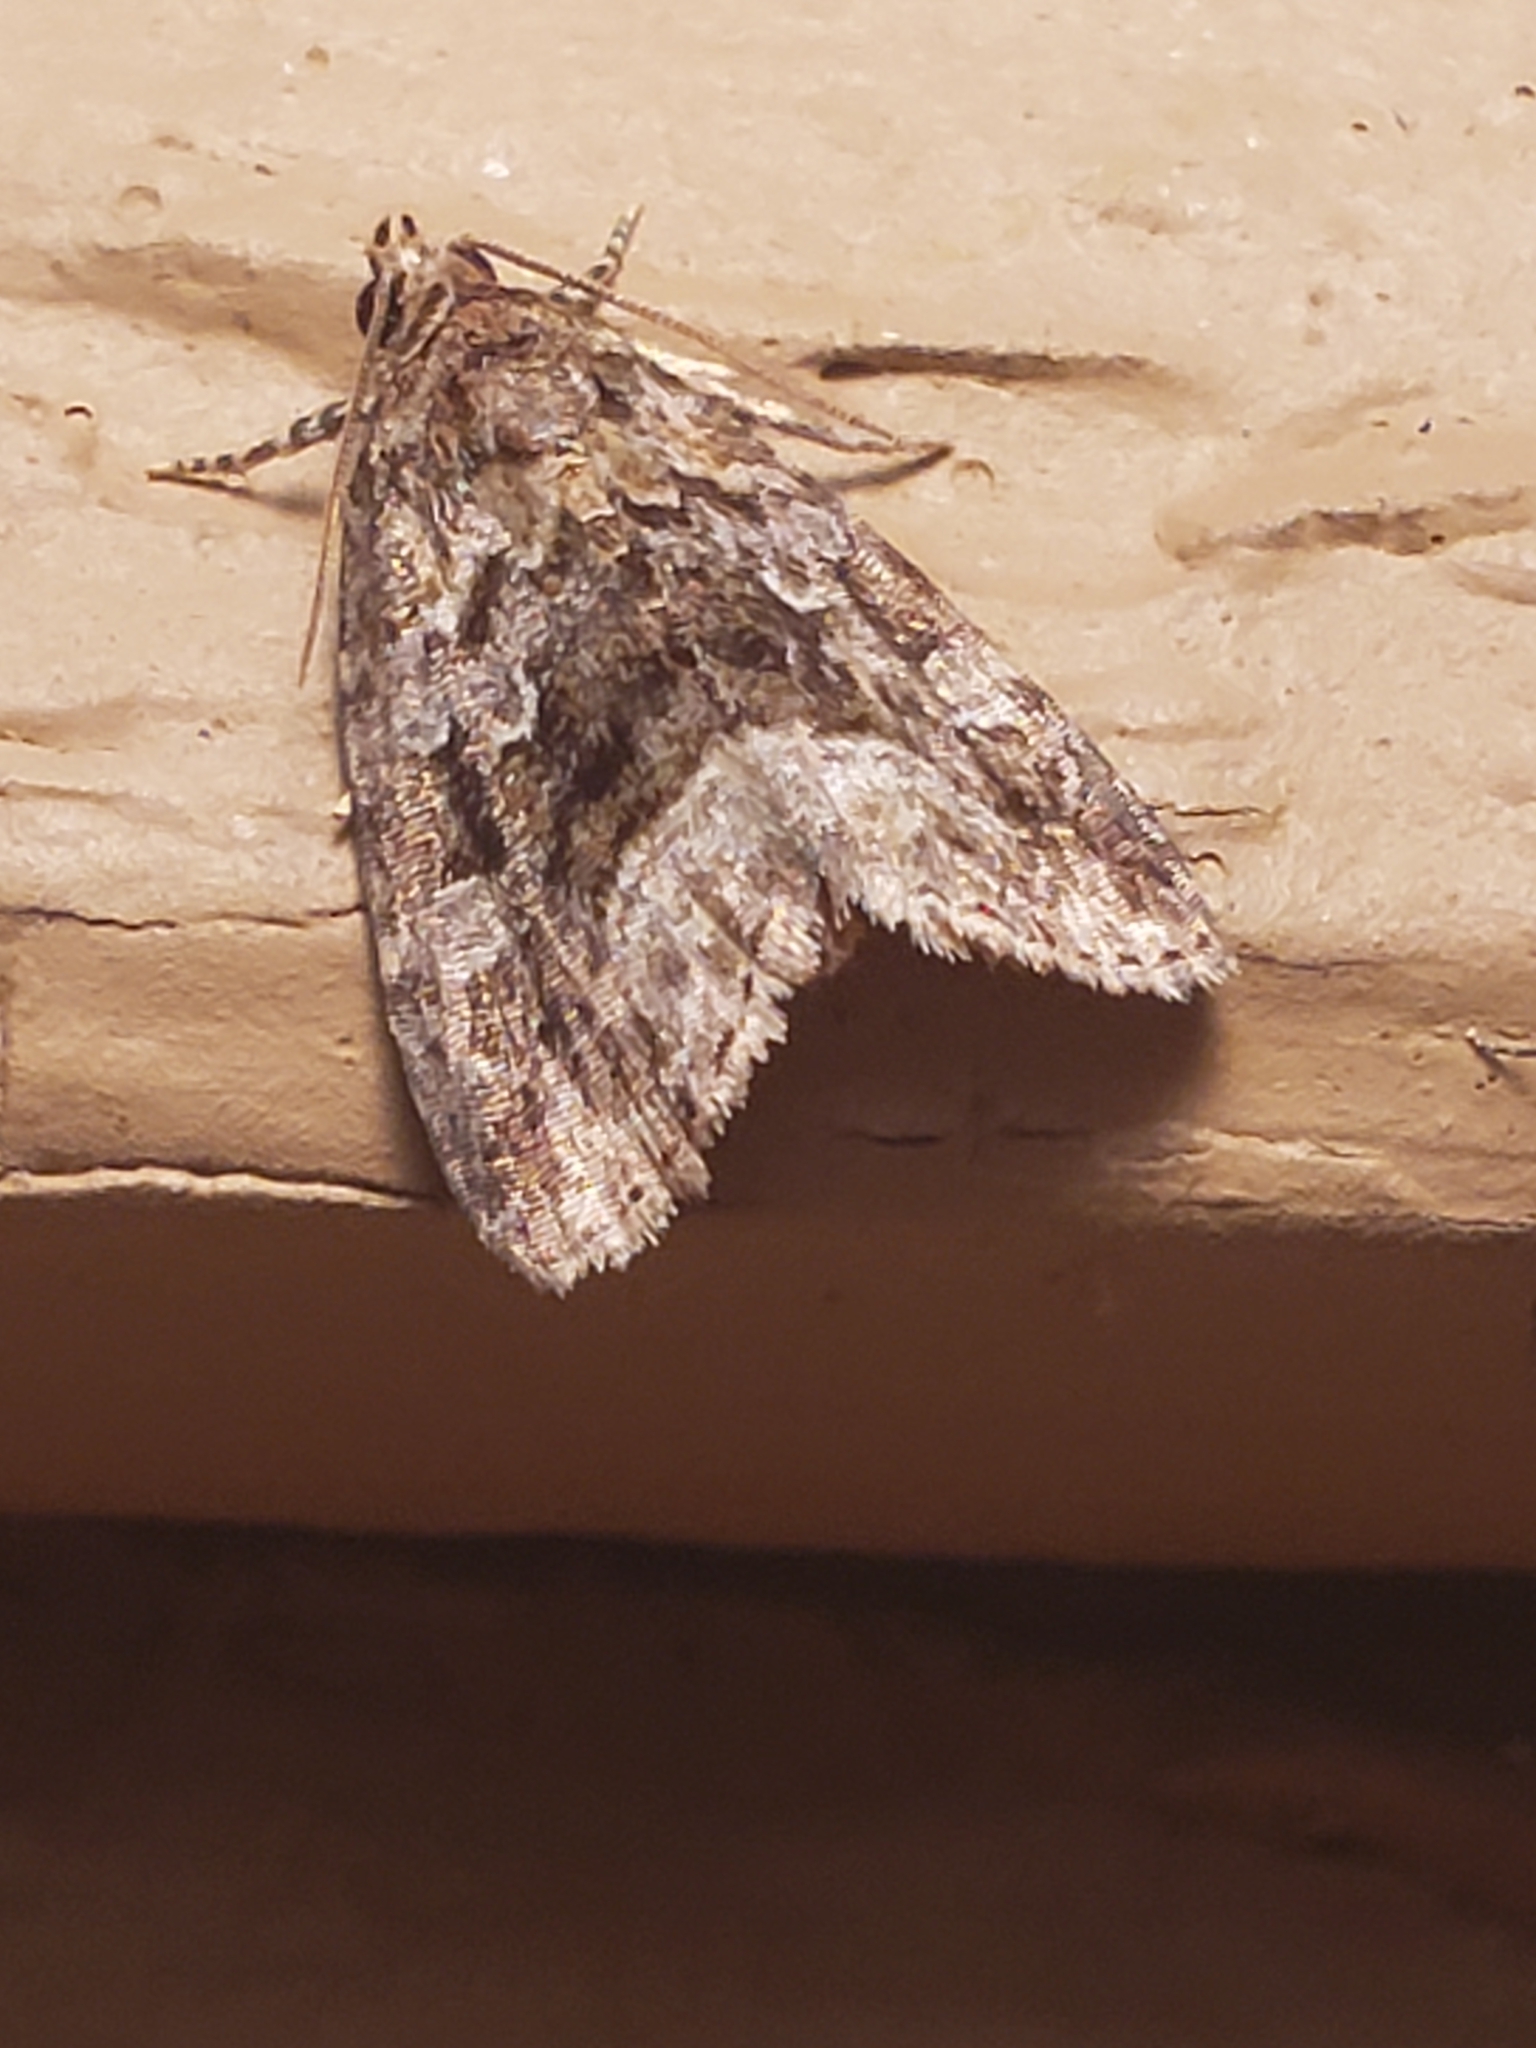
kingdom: Animalia
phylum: Arthropoda
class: Insecta
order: Lepidoptera
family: Noctuidae
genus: Protodeltote
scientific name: Protodeltote muscosula
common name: Large mossy glyph
